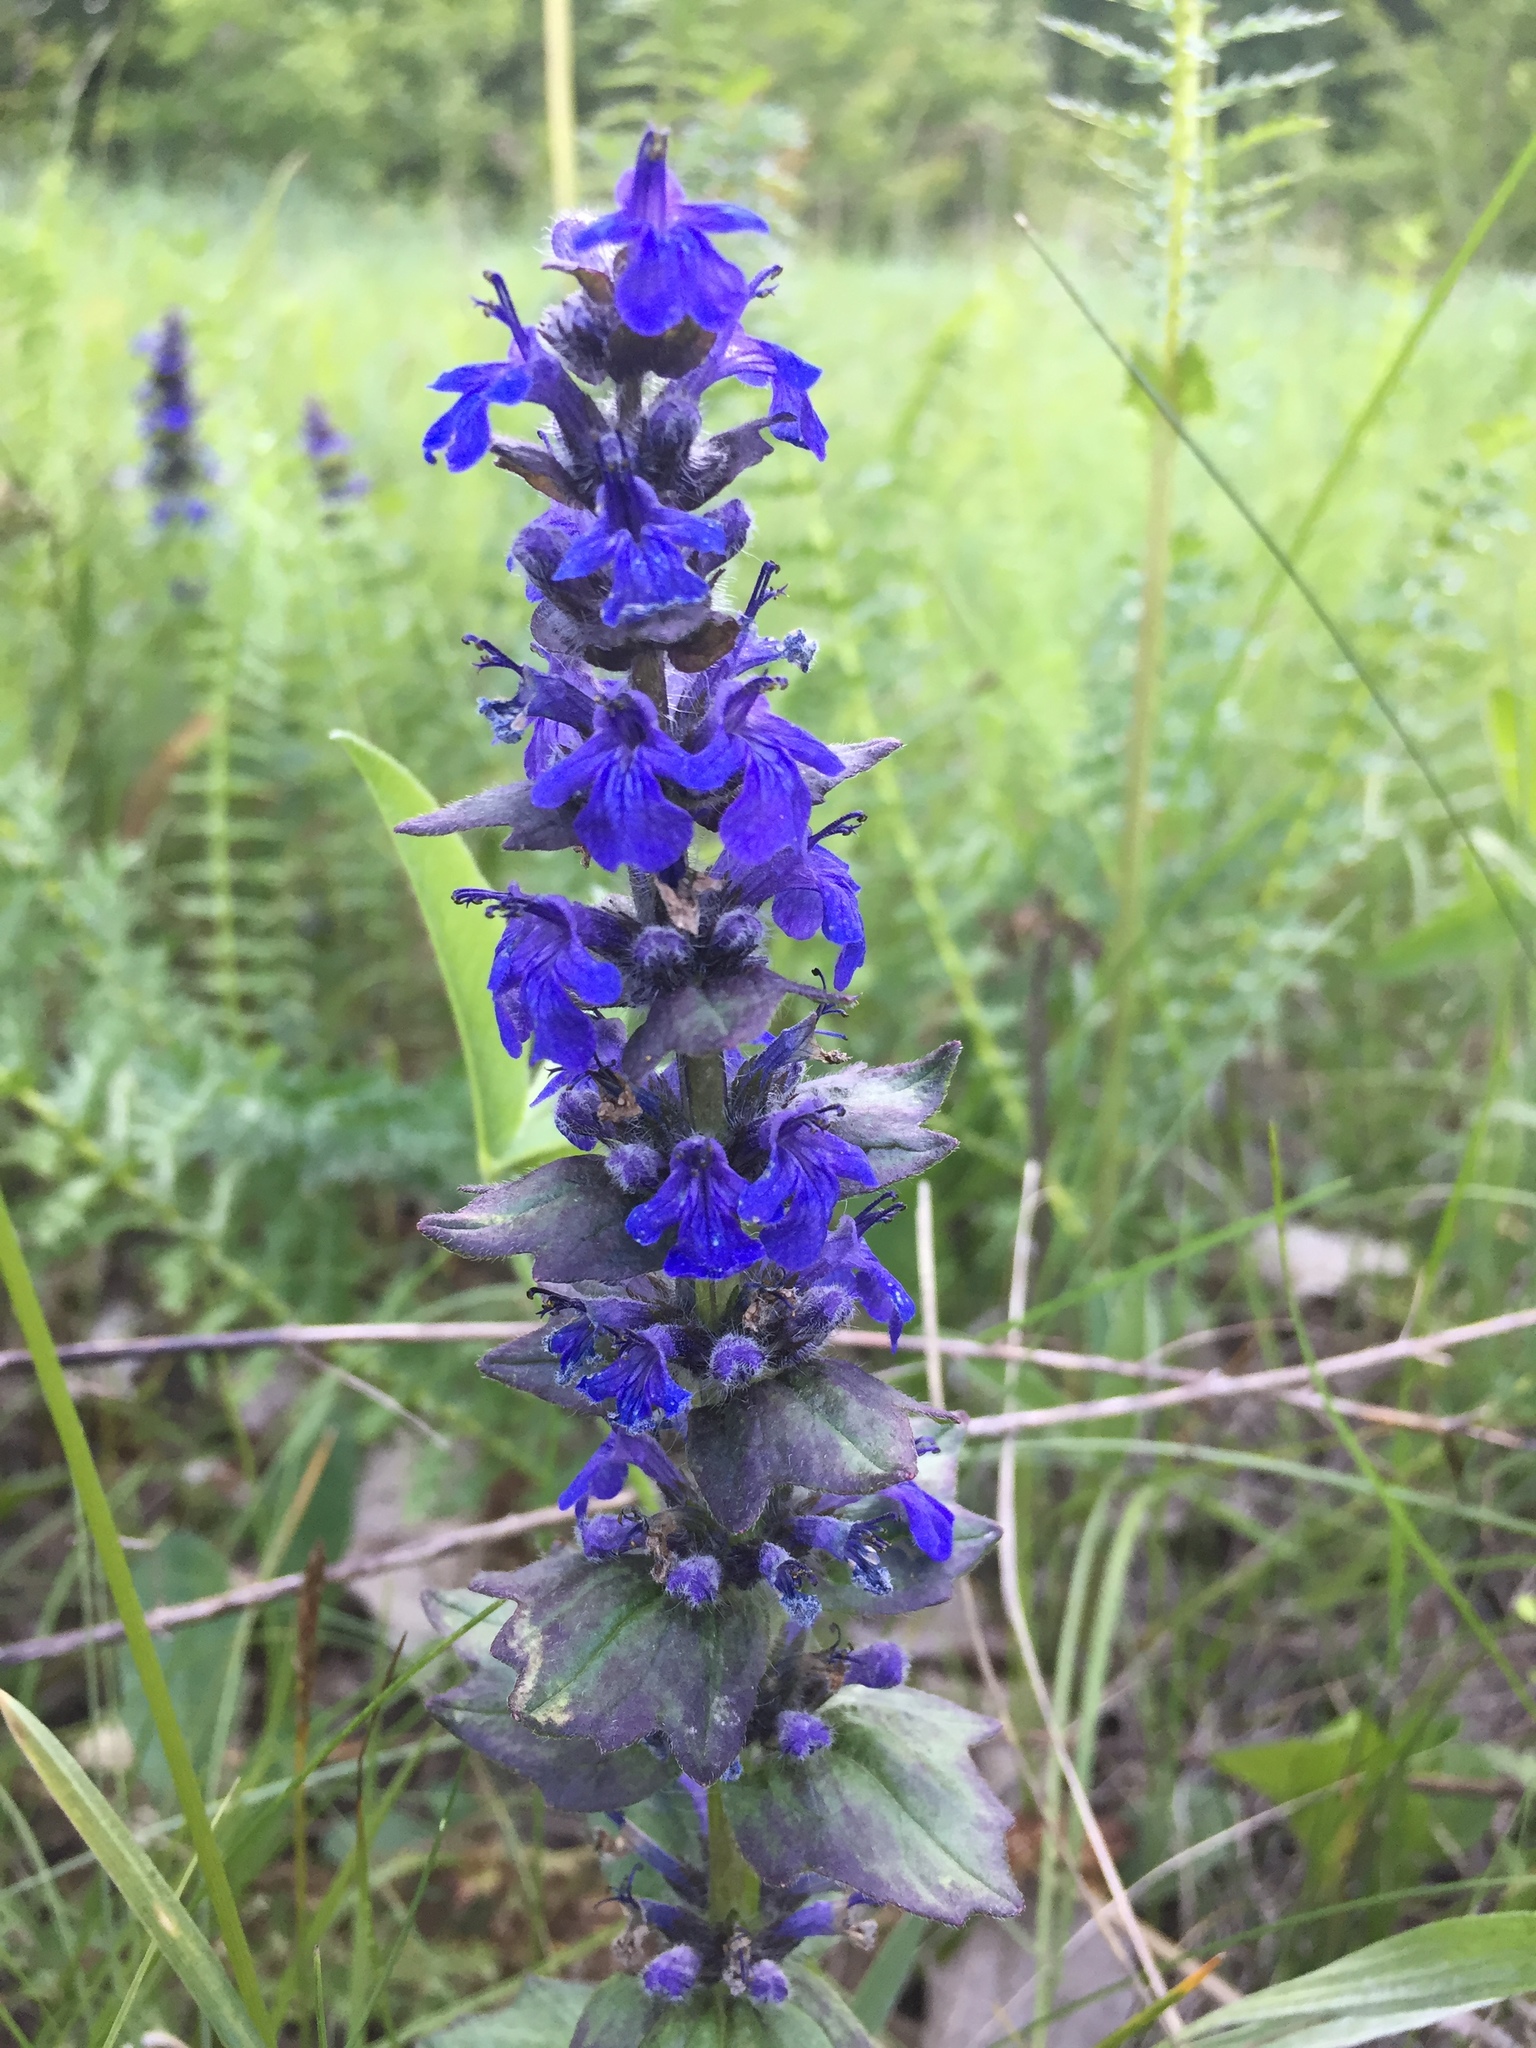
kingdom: Plantae
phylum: Tracheophyta
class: Magnoliopsida
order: Lamiales
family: Lamiaceae
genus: Ajuga
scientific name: Ajuga genevensis
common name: Blue bugle
